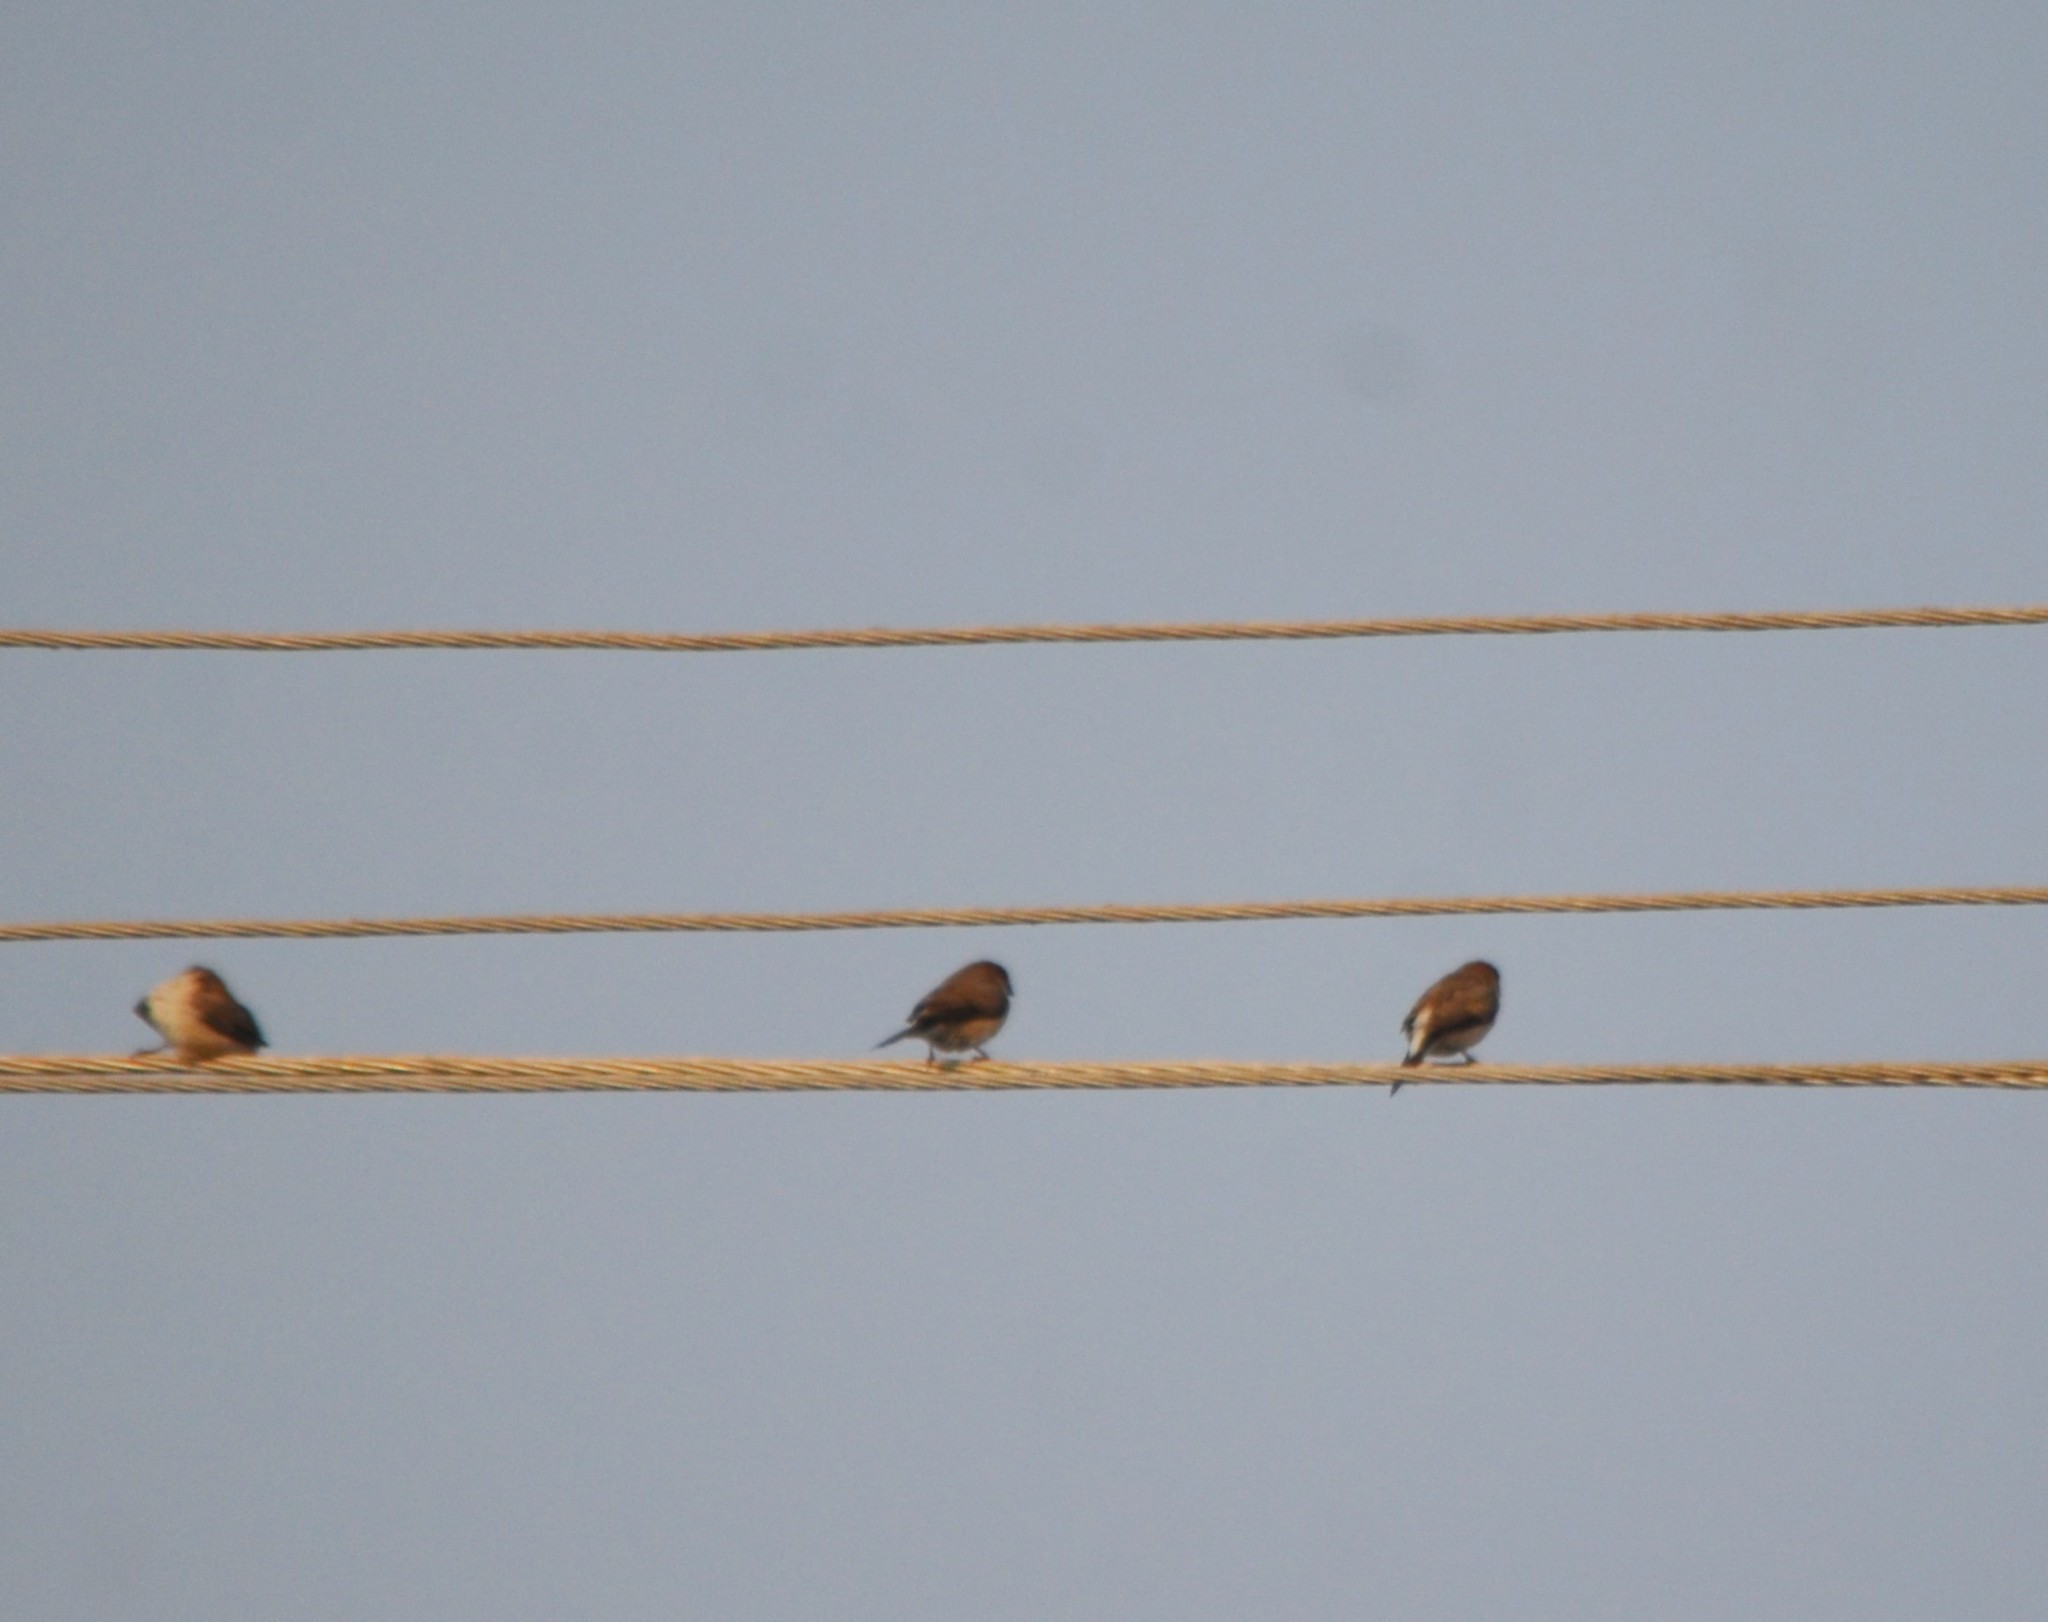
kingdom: Animalia
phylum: Chordata
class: Aves
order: Passeriformes
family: Estrildidae
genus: Euodice
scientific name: Euodice malabarica
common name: Indian silverbill
